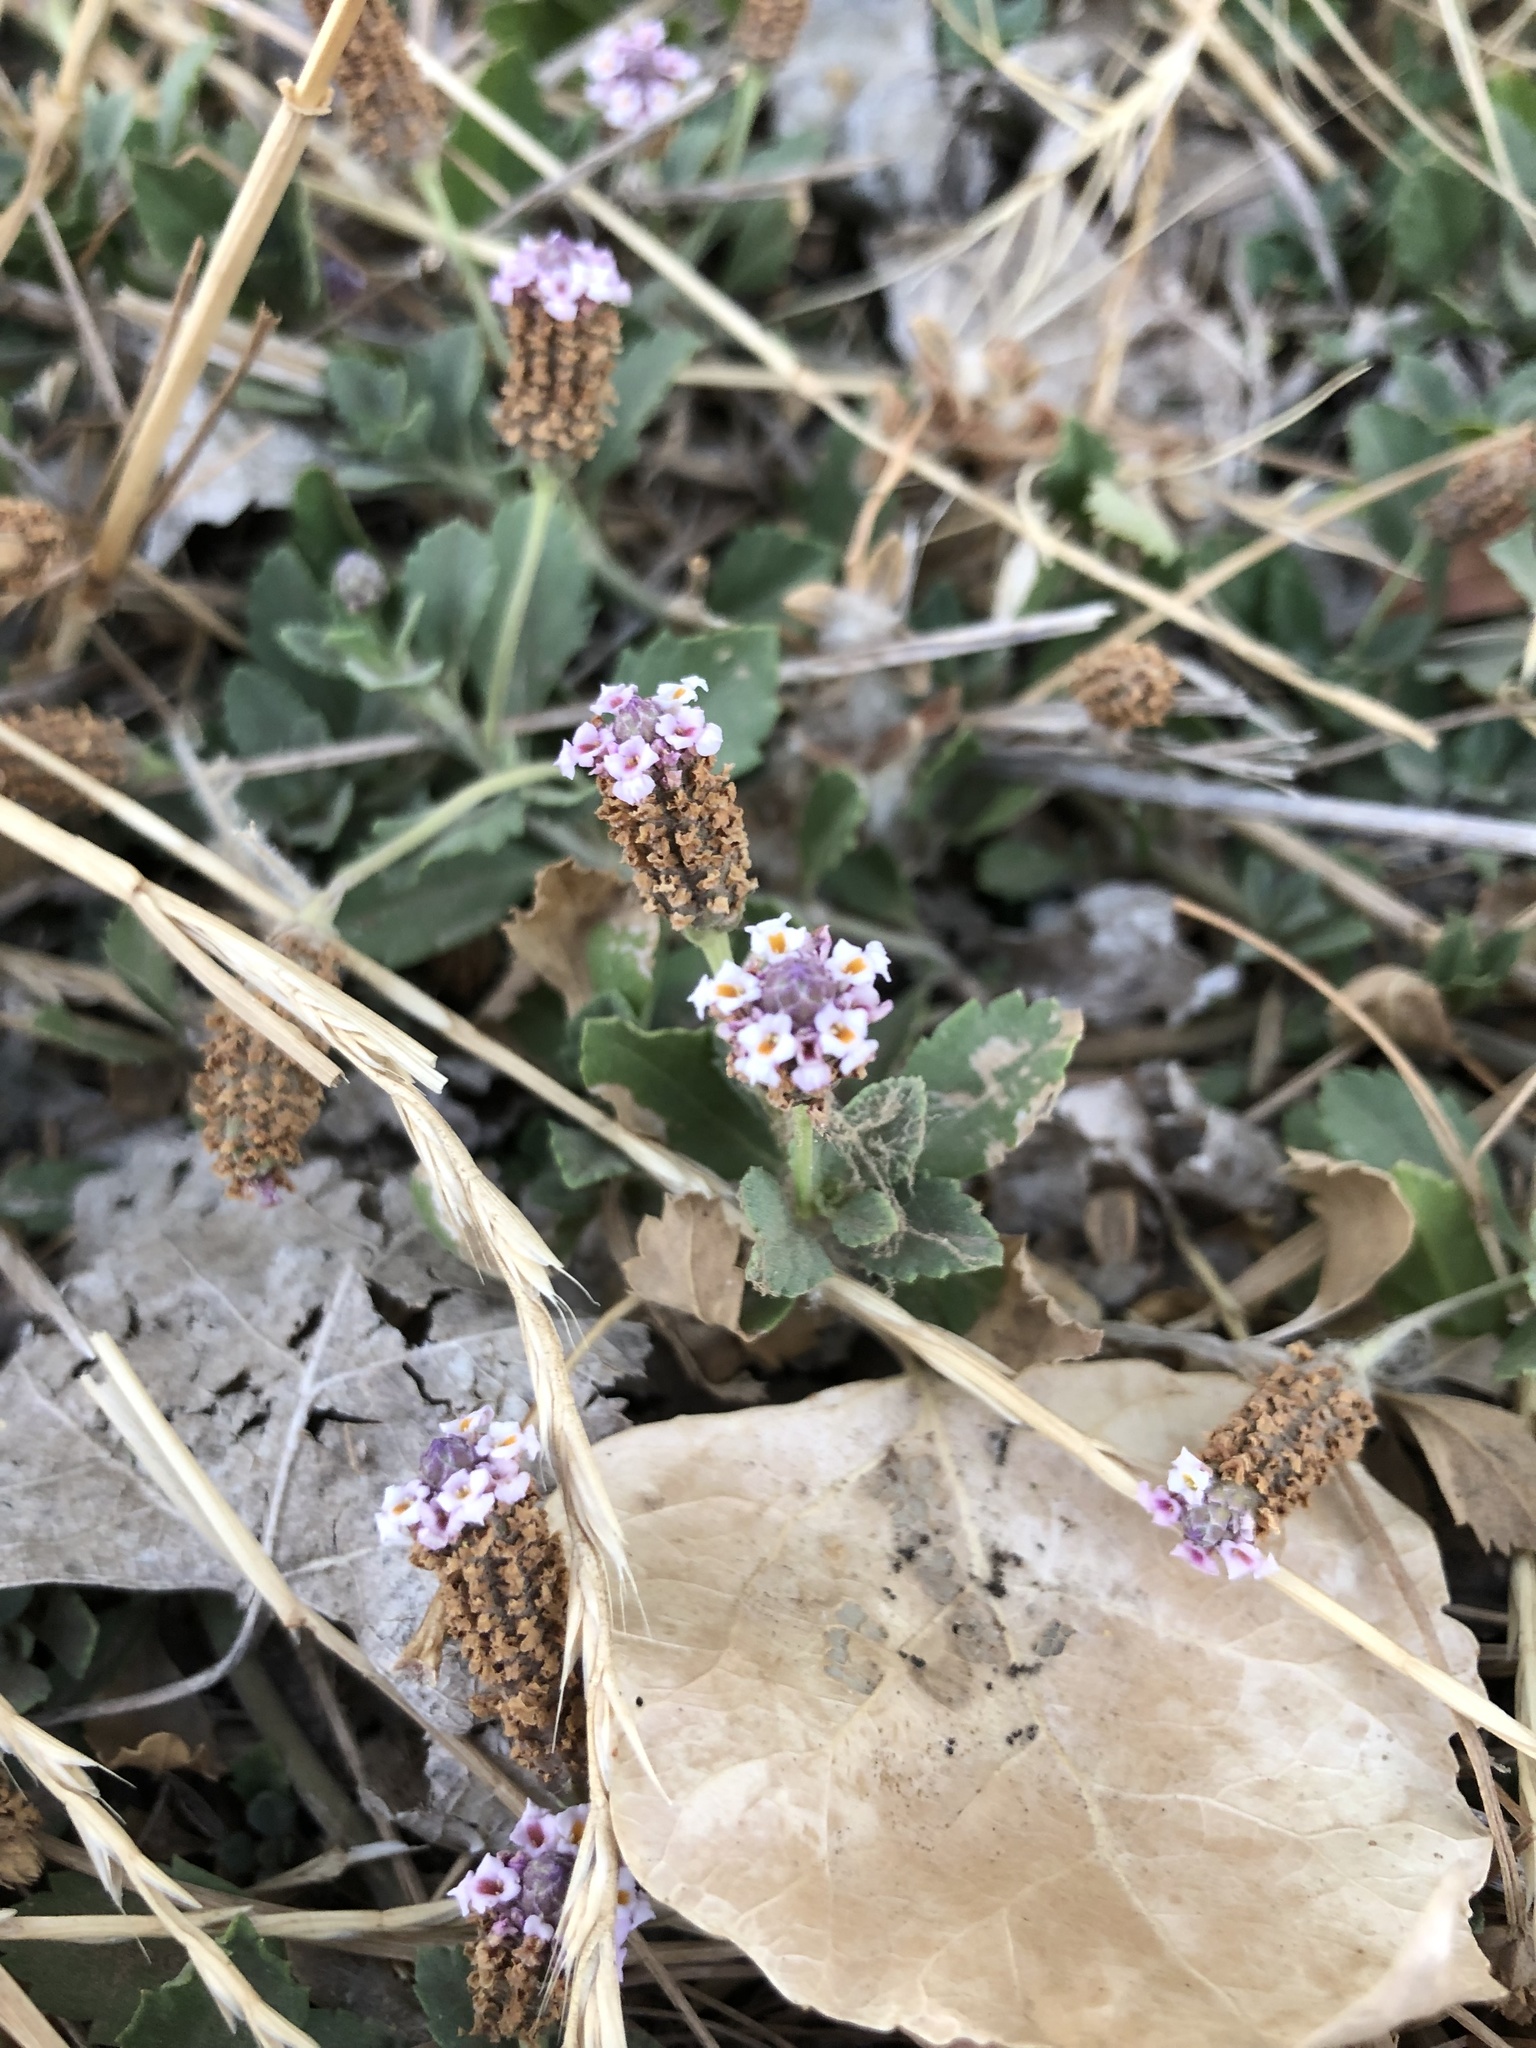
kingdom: Plantae
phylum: Tracheophyta
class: Magnoliopsida
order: Lamiales
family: Verbenaceae
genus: Phyla
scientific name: Phyla nodiflora
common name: Frogfruit
